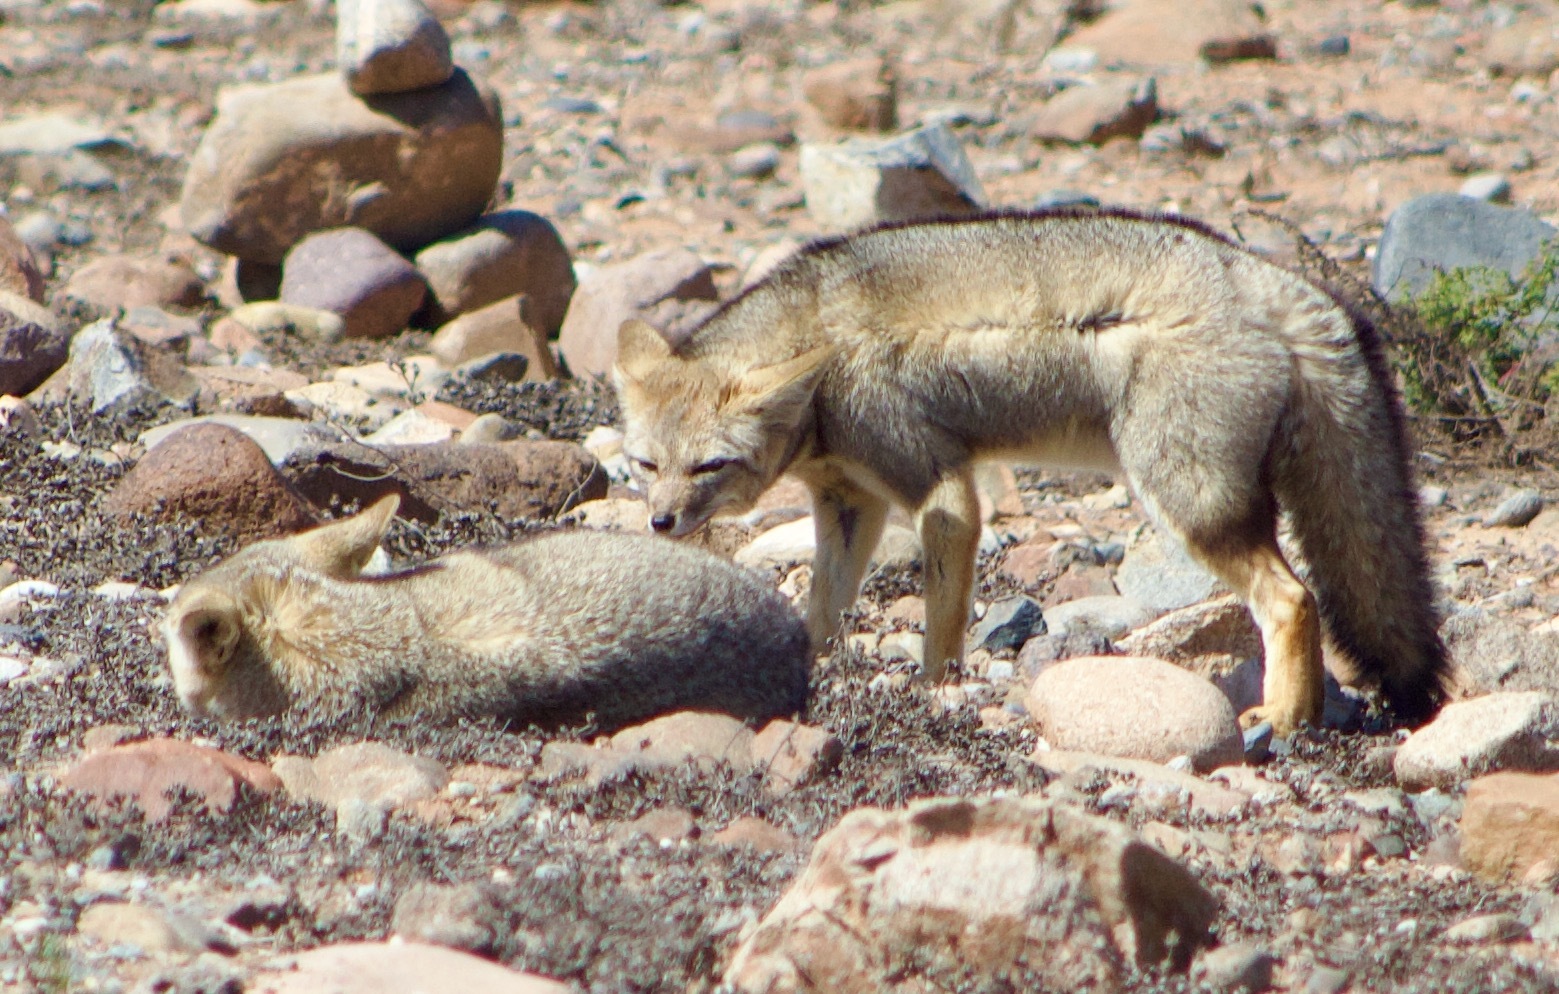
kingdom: Animalia
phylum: Chordata
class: Mammalia
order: Carnivora
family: Canidae
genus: Lycalopex
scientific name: Lycalopex gymnocercus
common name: Pampas fox
